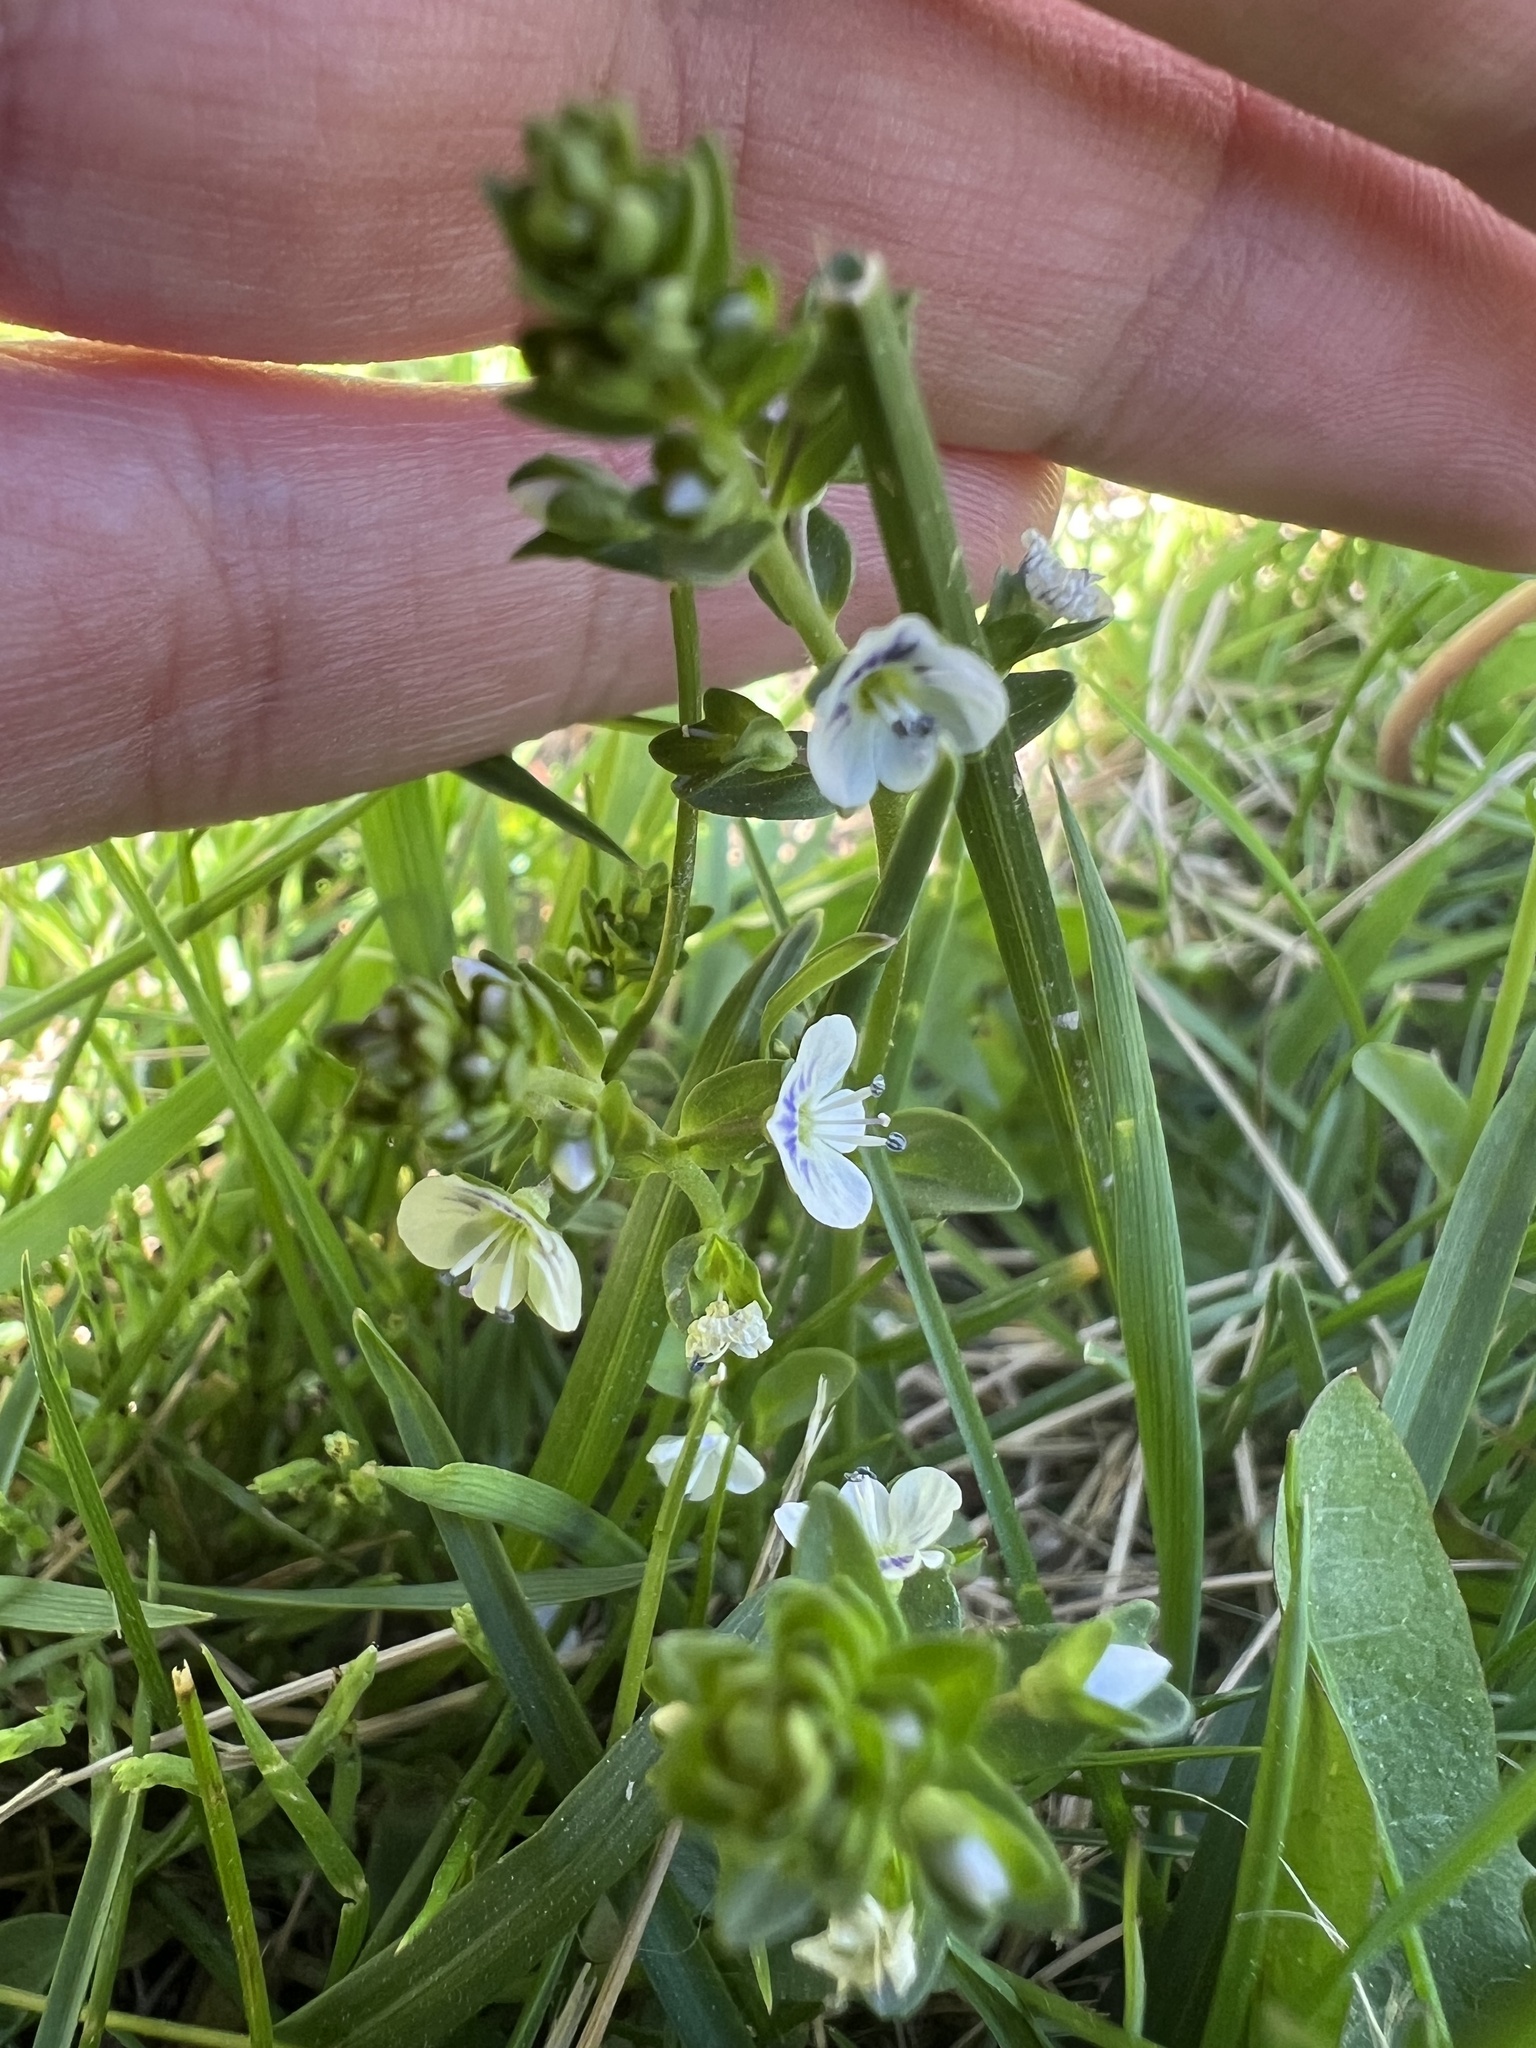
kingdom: Plantae
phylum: Tracheophyta
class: Magnoliopsida
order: Lamiales
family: Plantaginaceae
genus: Veronica
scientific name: Veronica serpyllifolia
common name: Thyme-leaved speedwell
